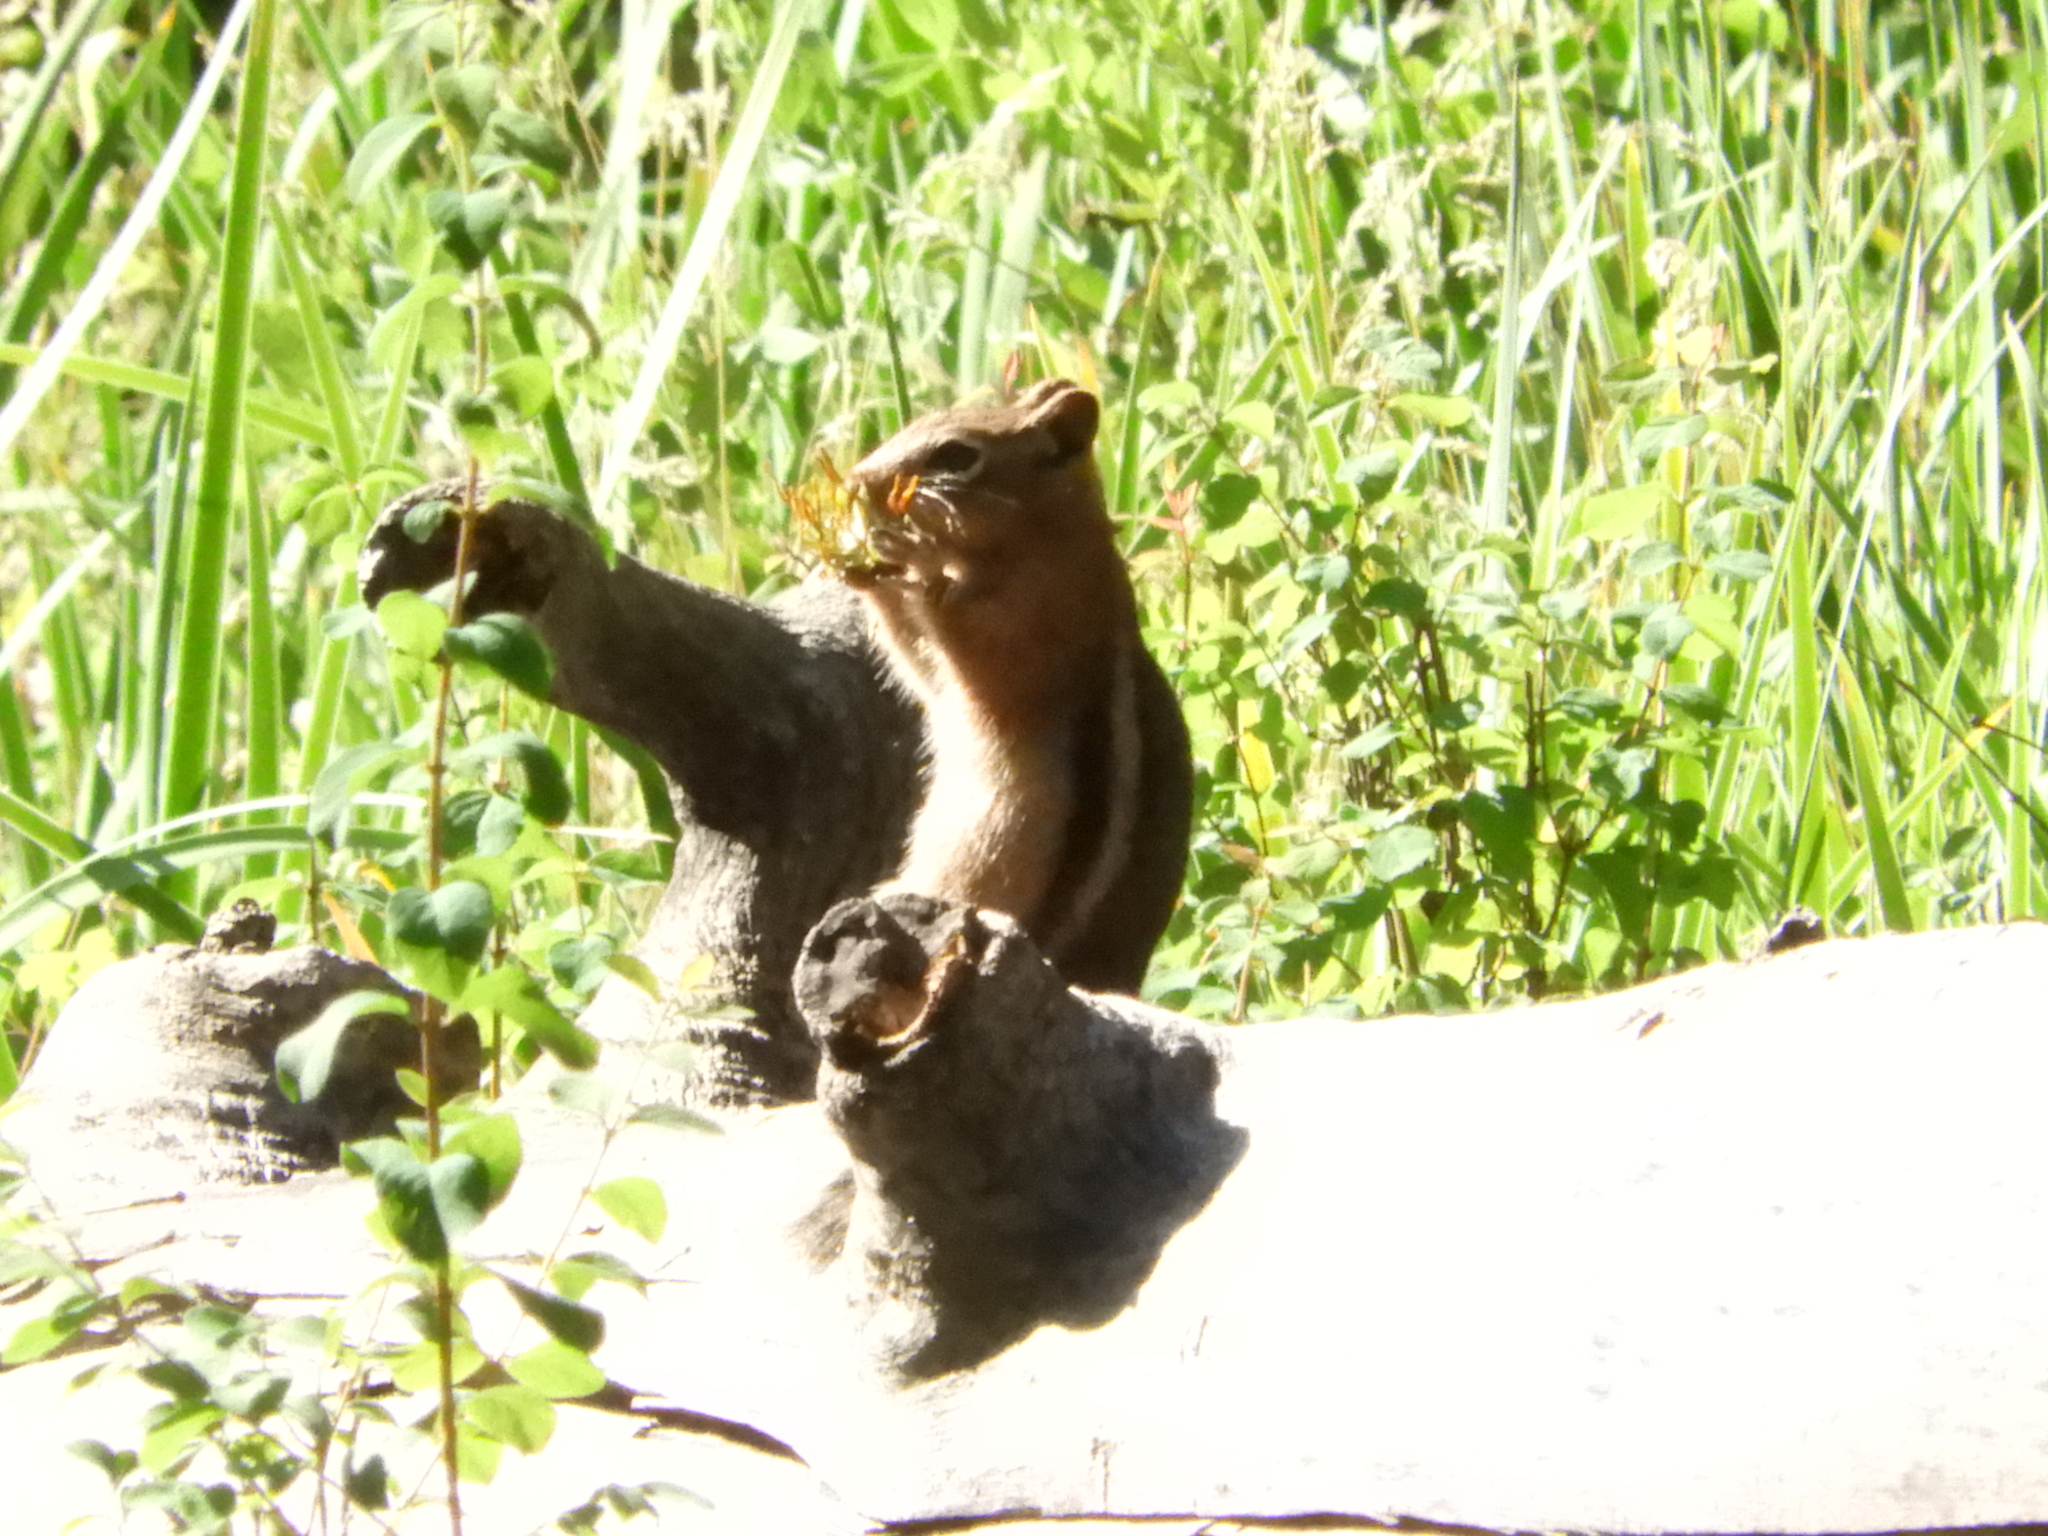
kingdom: Animalia
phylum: Chordata
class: Mammalia
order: Rodentia
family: Sciuridae
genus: Callospermophilus
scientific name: Callospermophilus lateralis
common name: Golden-mantled ground squirrel
